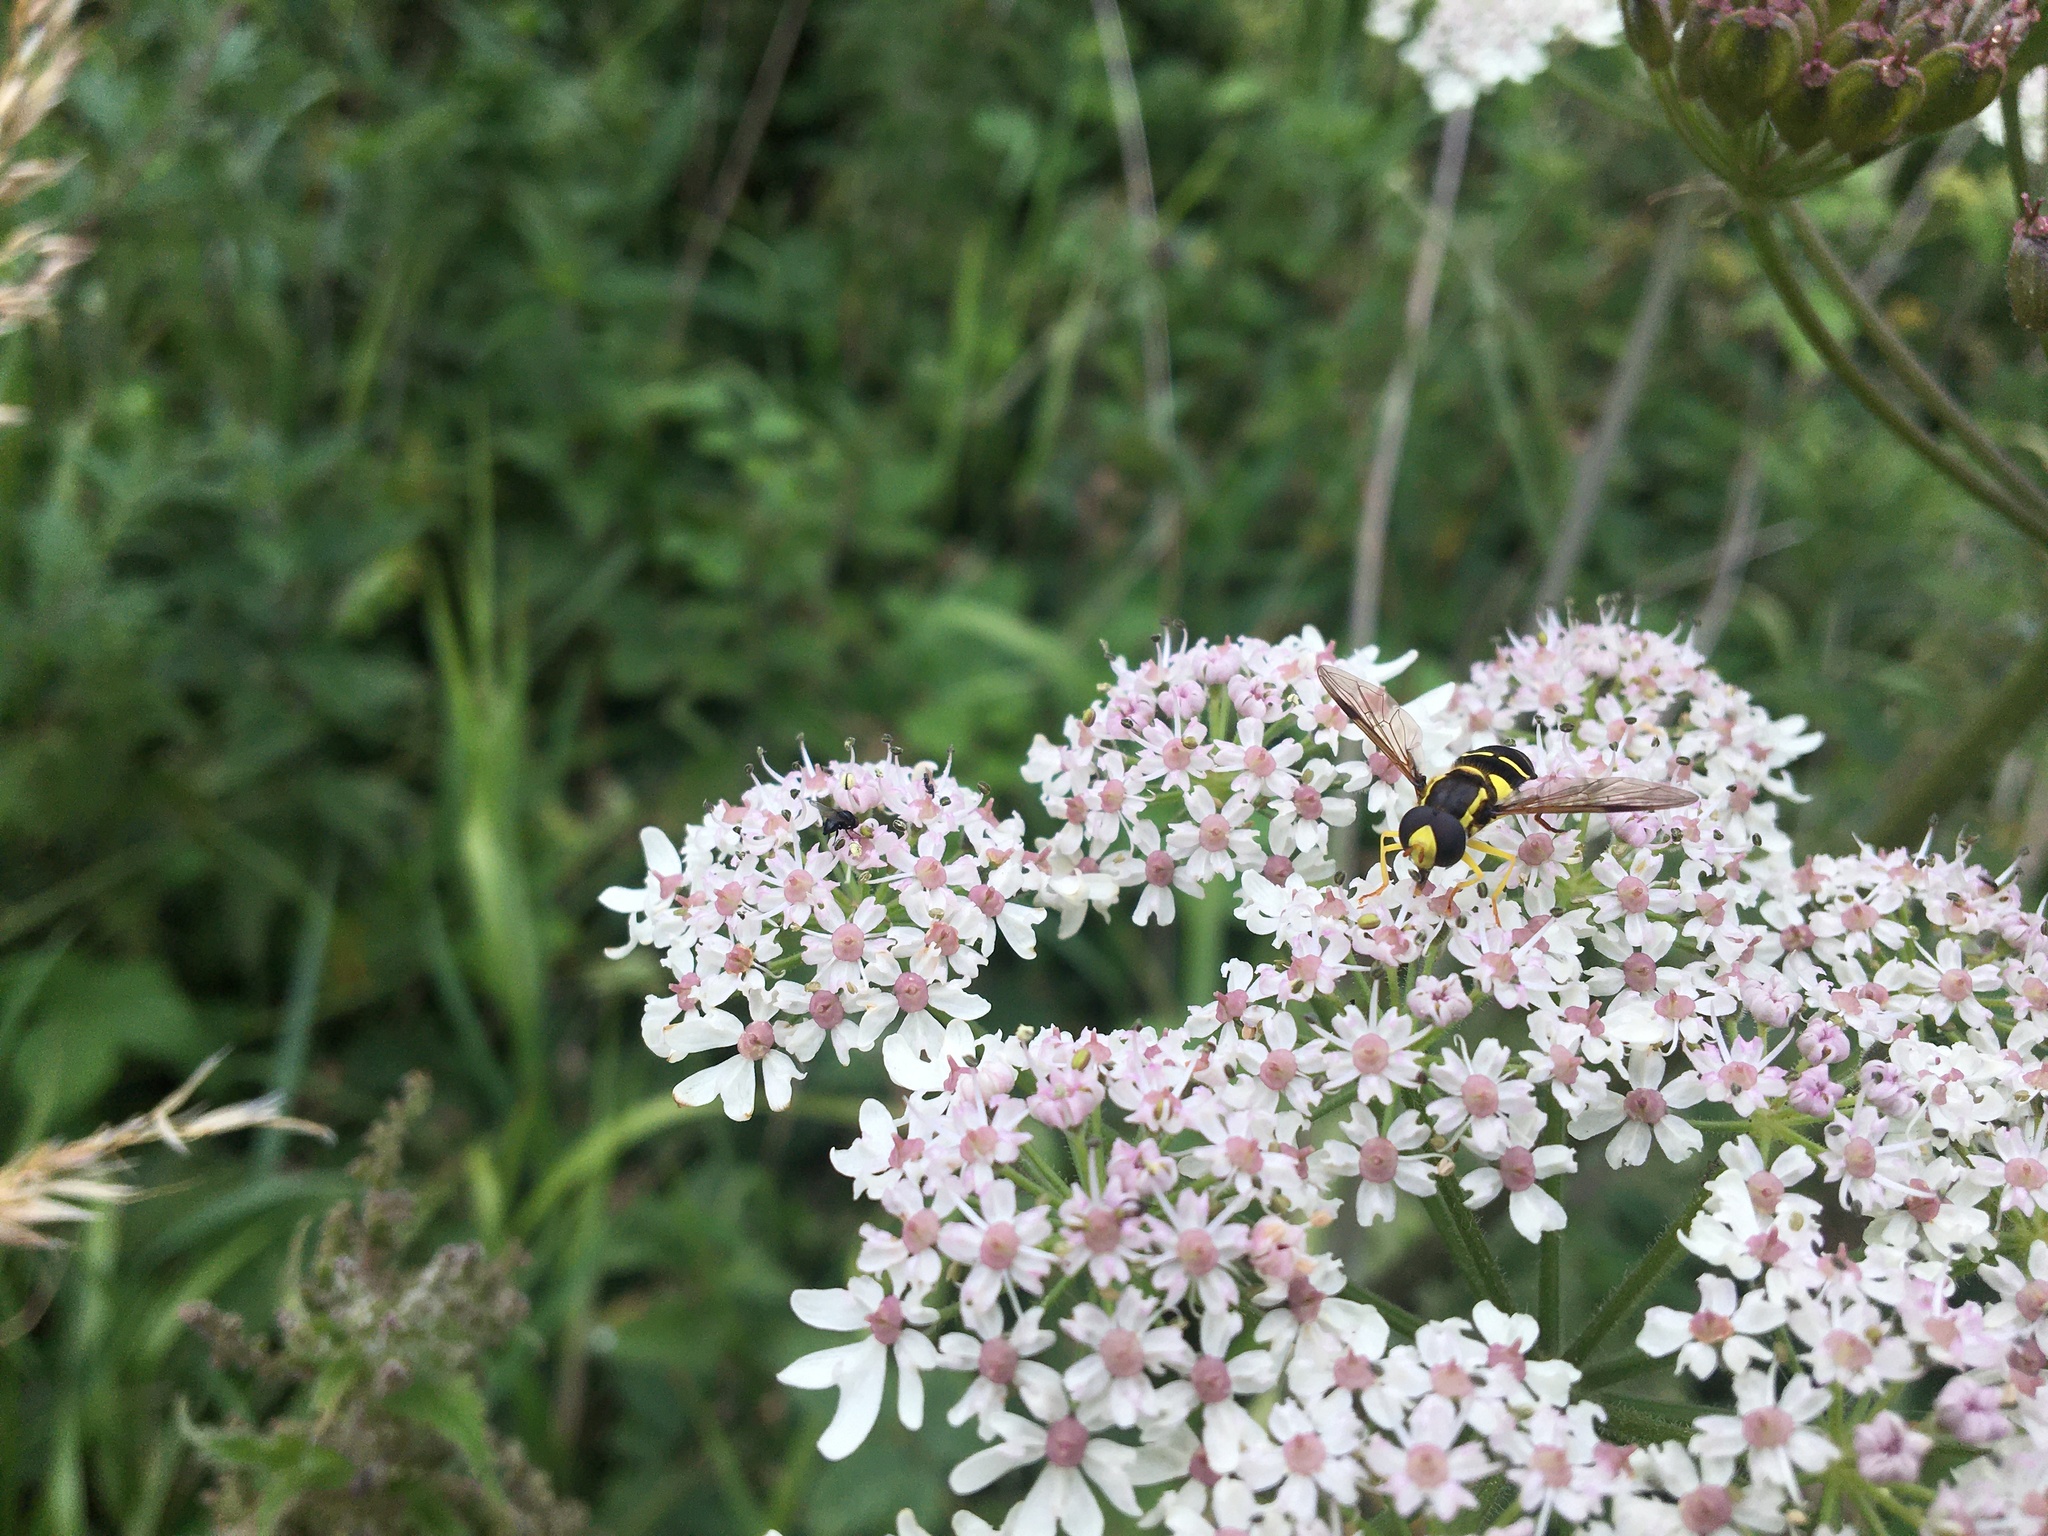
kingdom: Animalia
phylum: Arthropoda
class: Insecta
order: Diptera
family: Syrphidae
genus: Xanthogramma
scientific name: Xanthogramma
